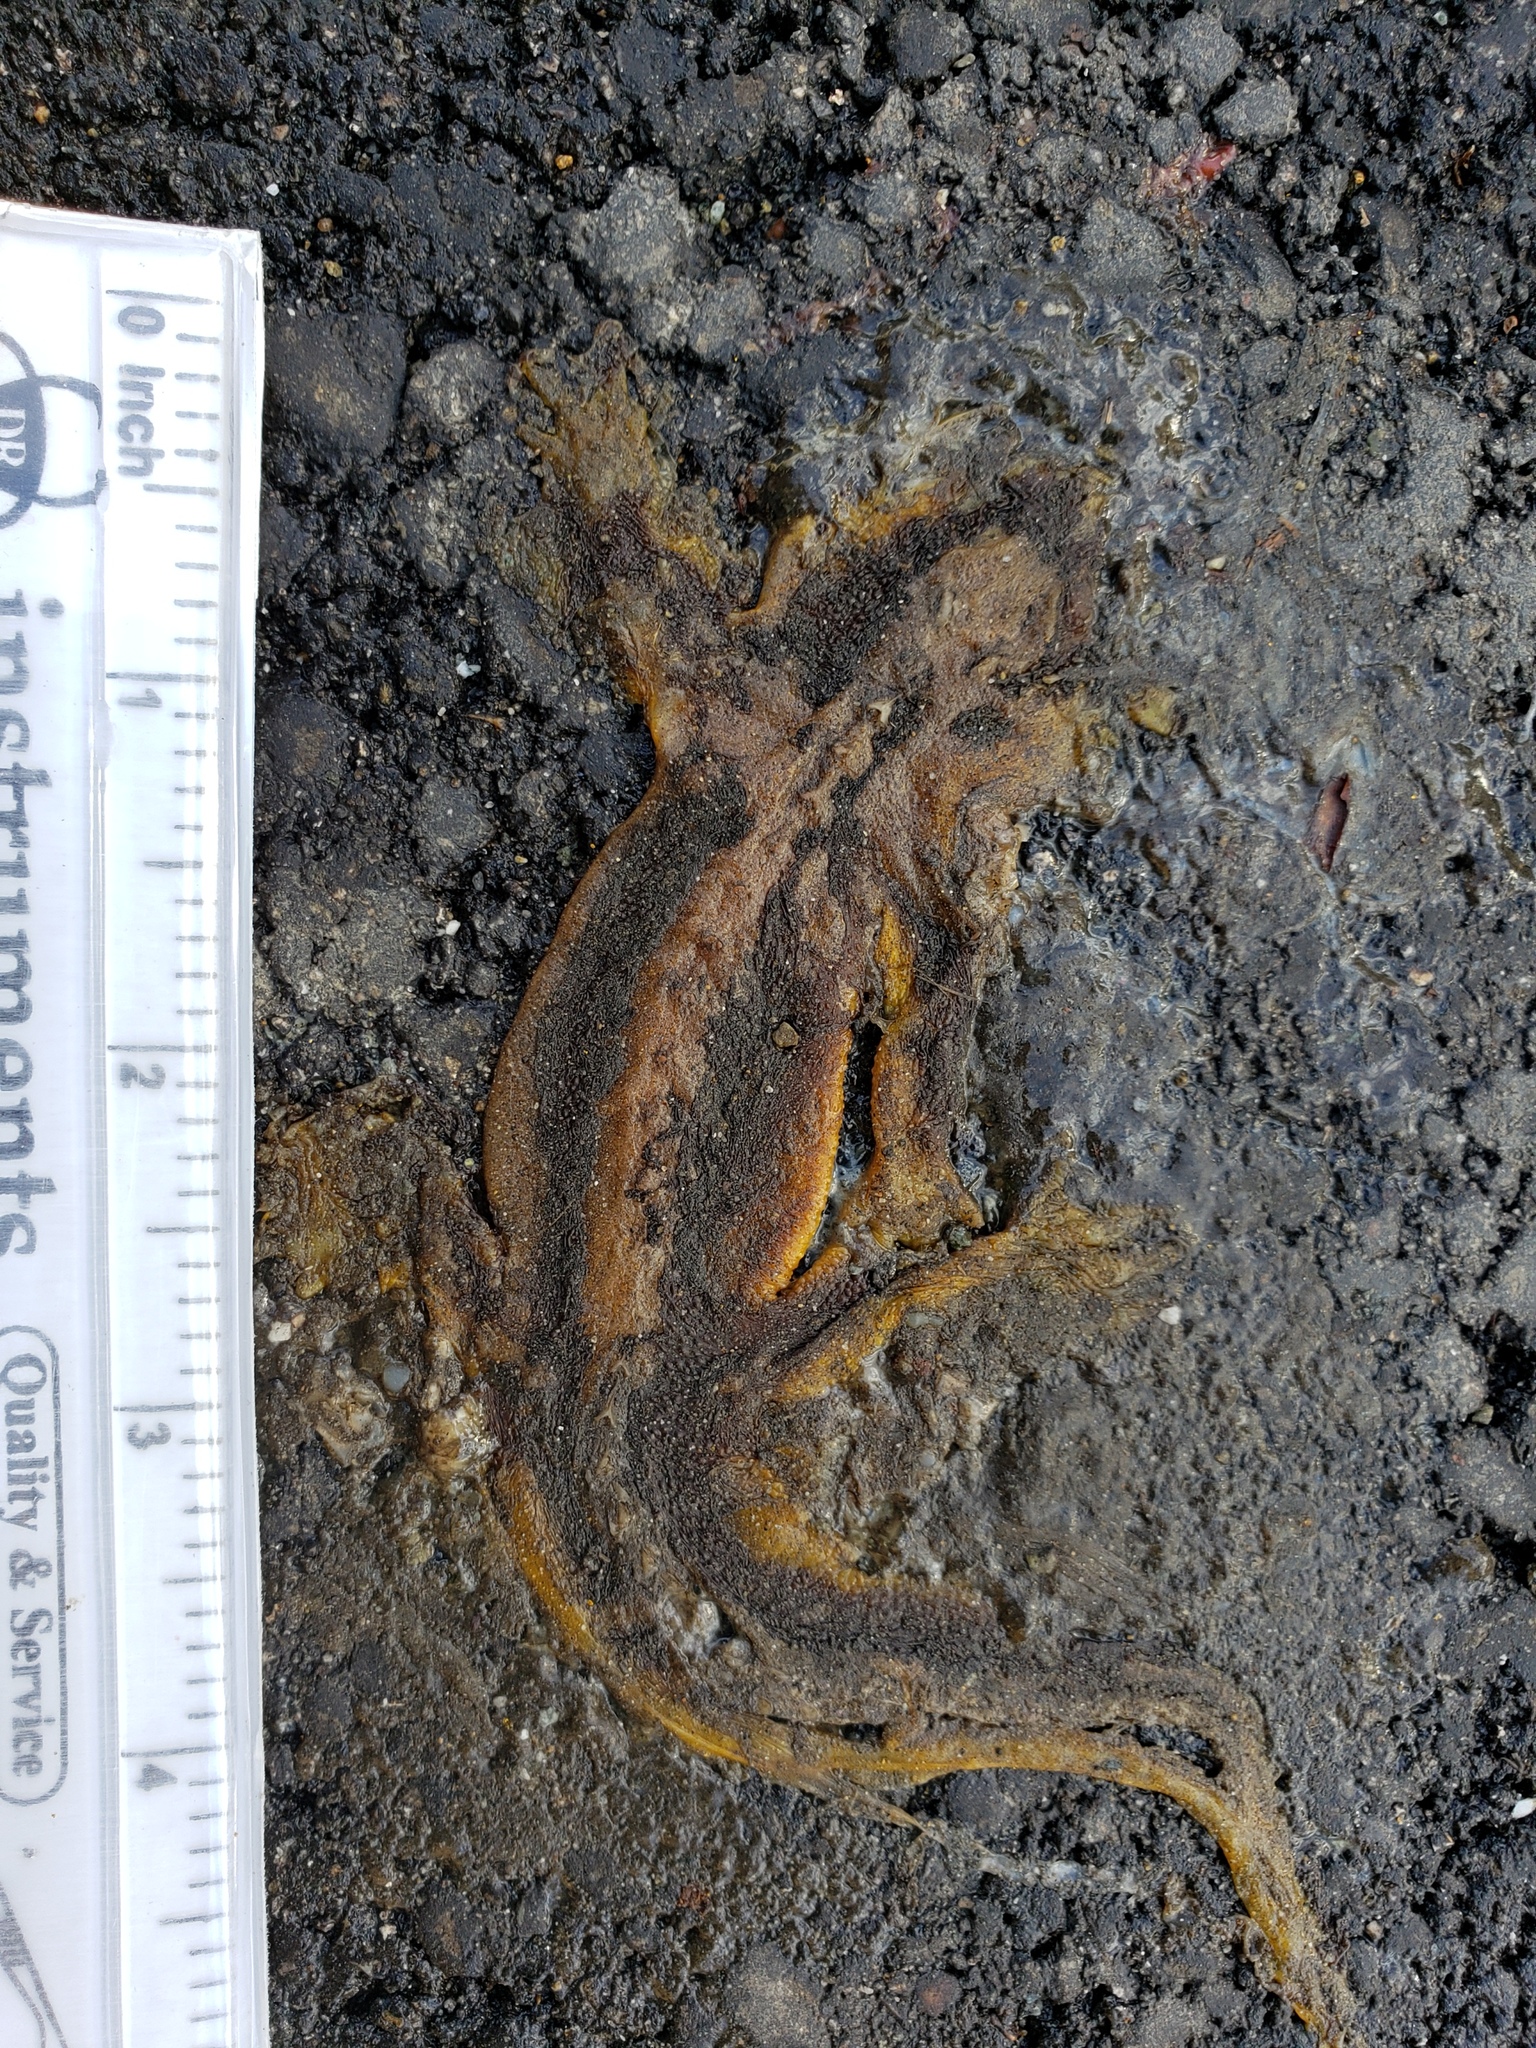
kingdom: Animalia
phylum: Chordata
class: Amphibia
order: Caudata
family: Salamandridae
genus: Taricha
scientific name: Taricha
